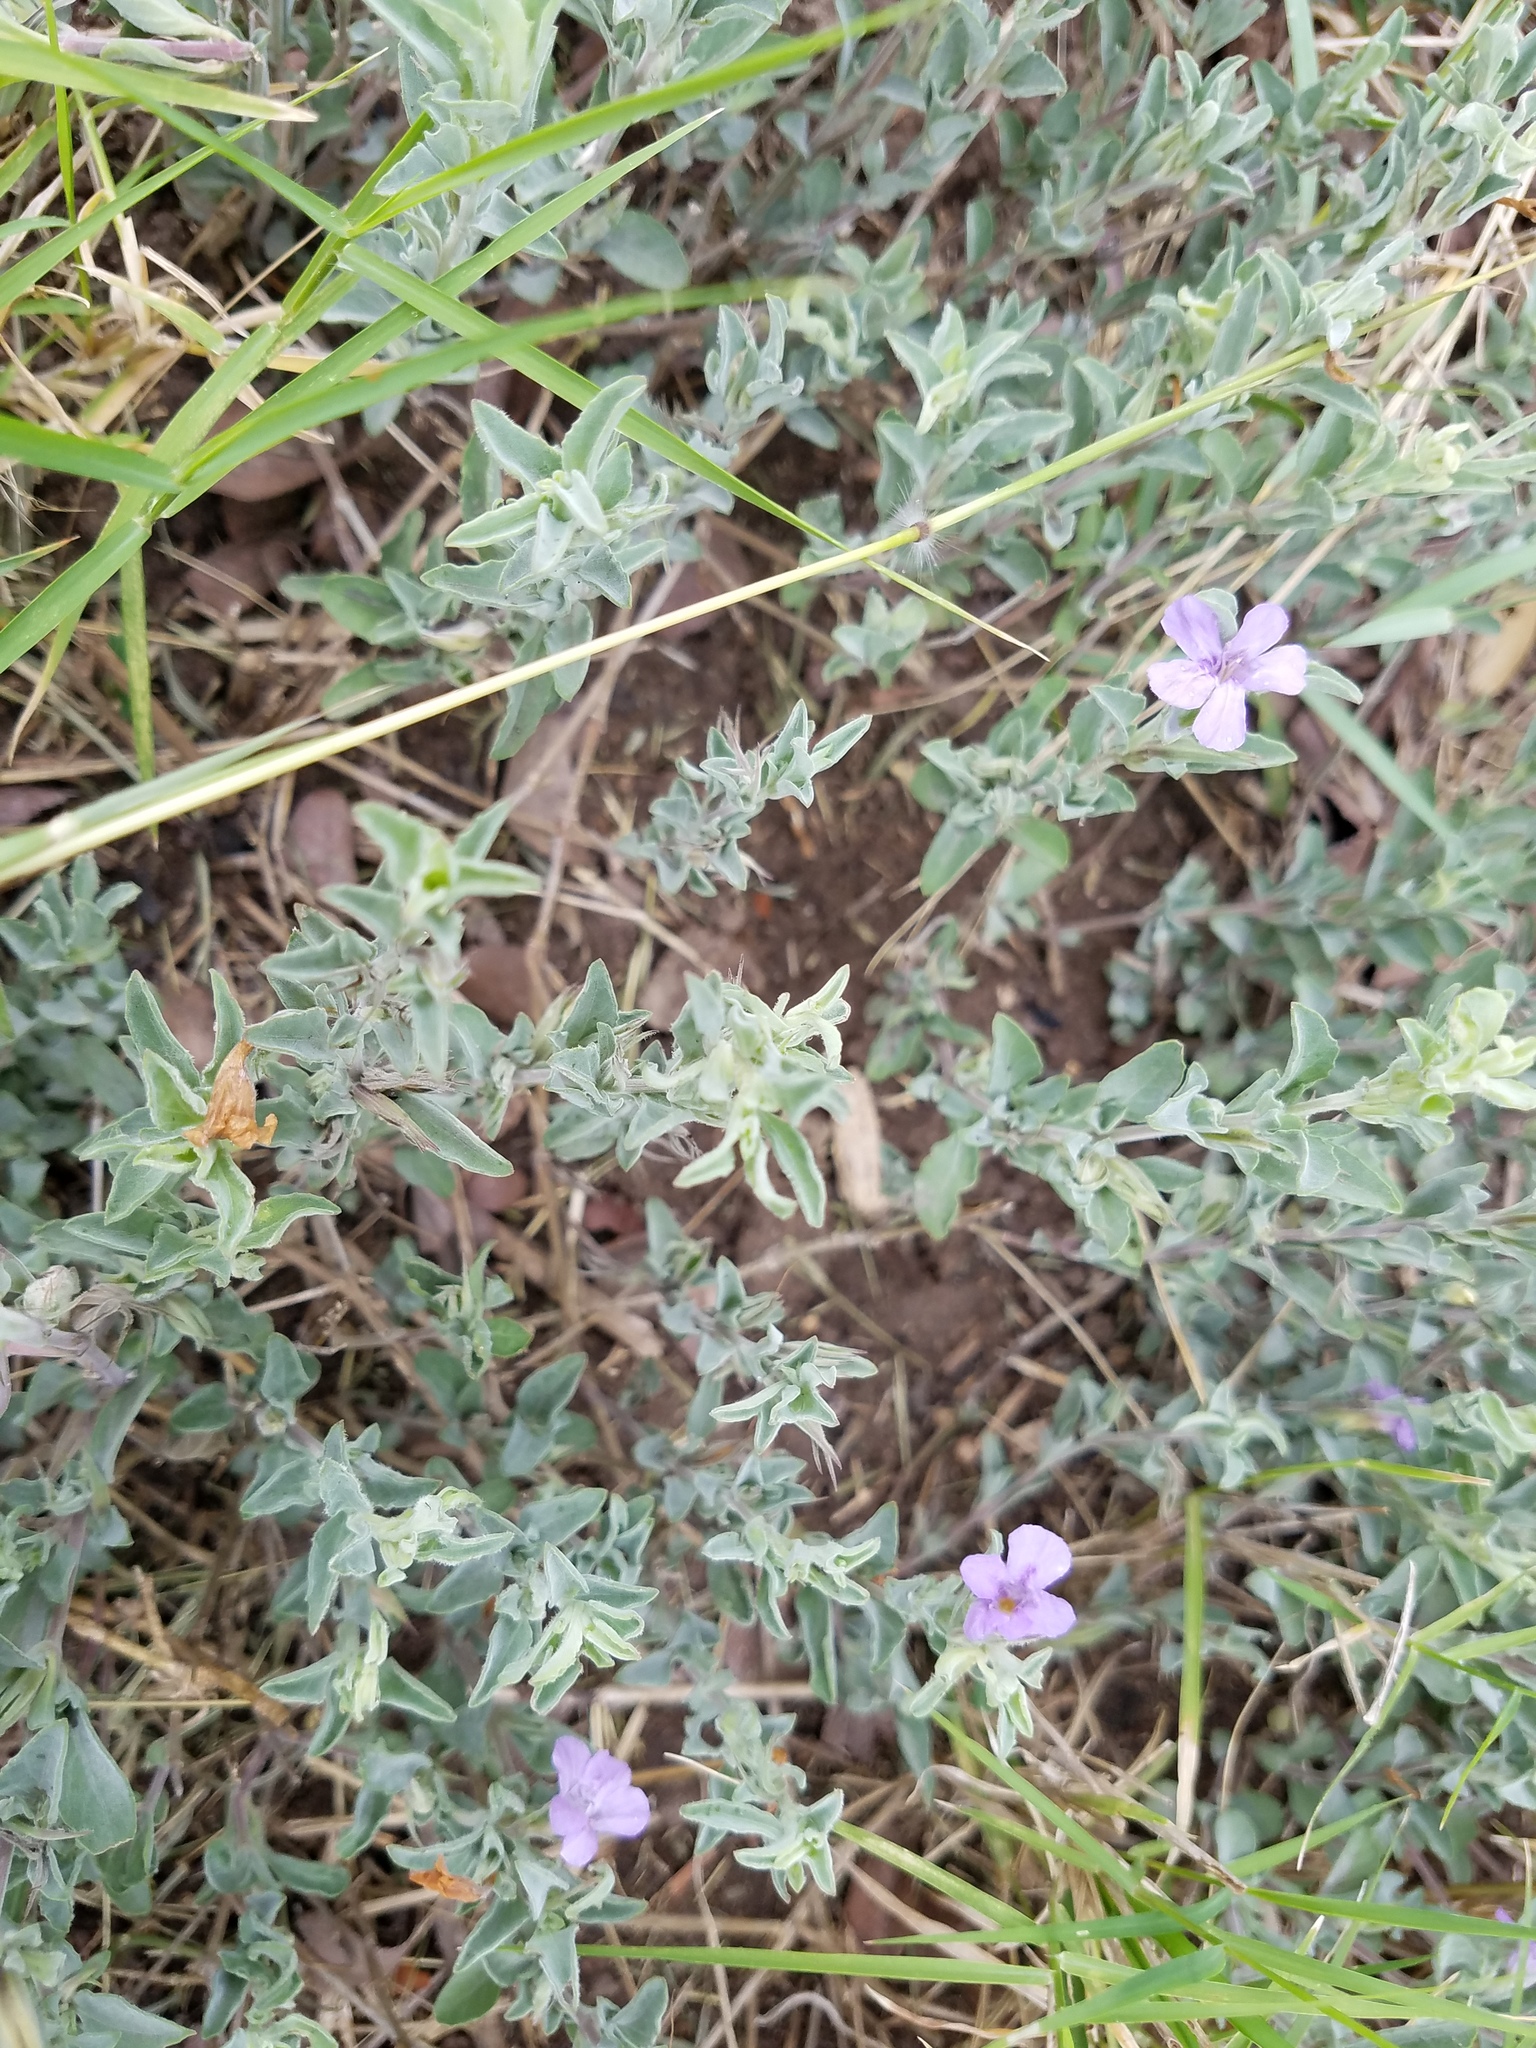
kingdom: Plantae
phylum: Tracheophyta
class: Magnoliopsida
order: Lamiales
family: Acanthaceae
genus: Dyschoriste
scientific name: Dyschoriste crenulata
